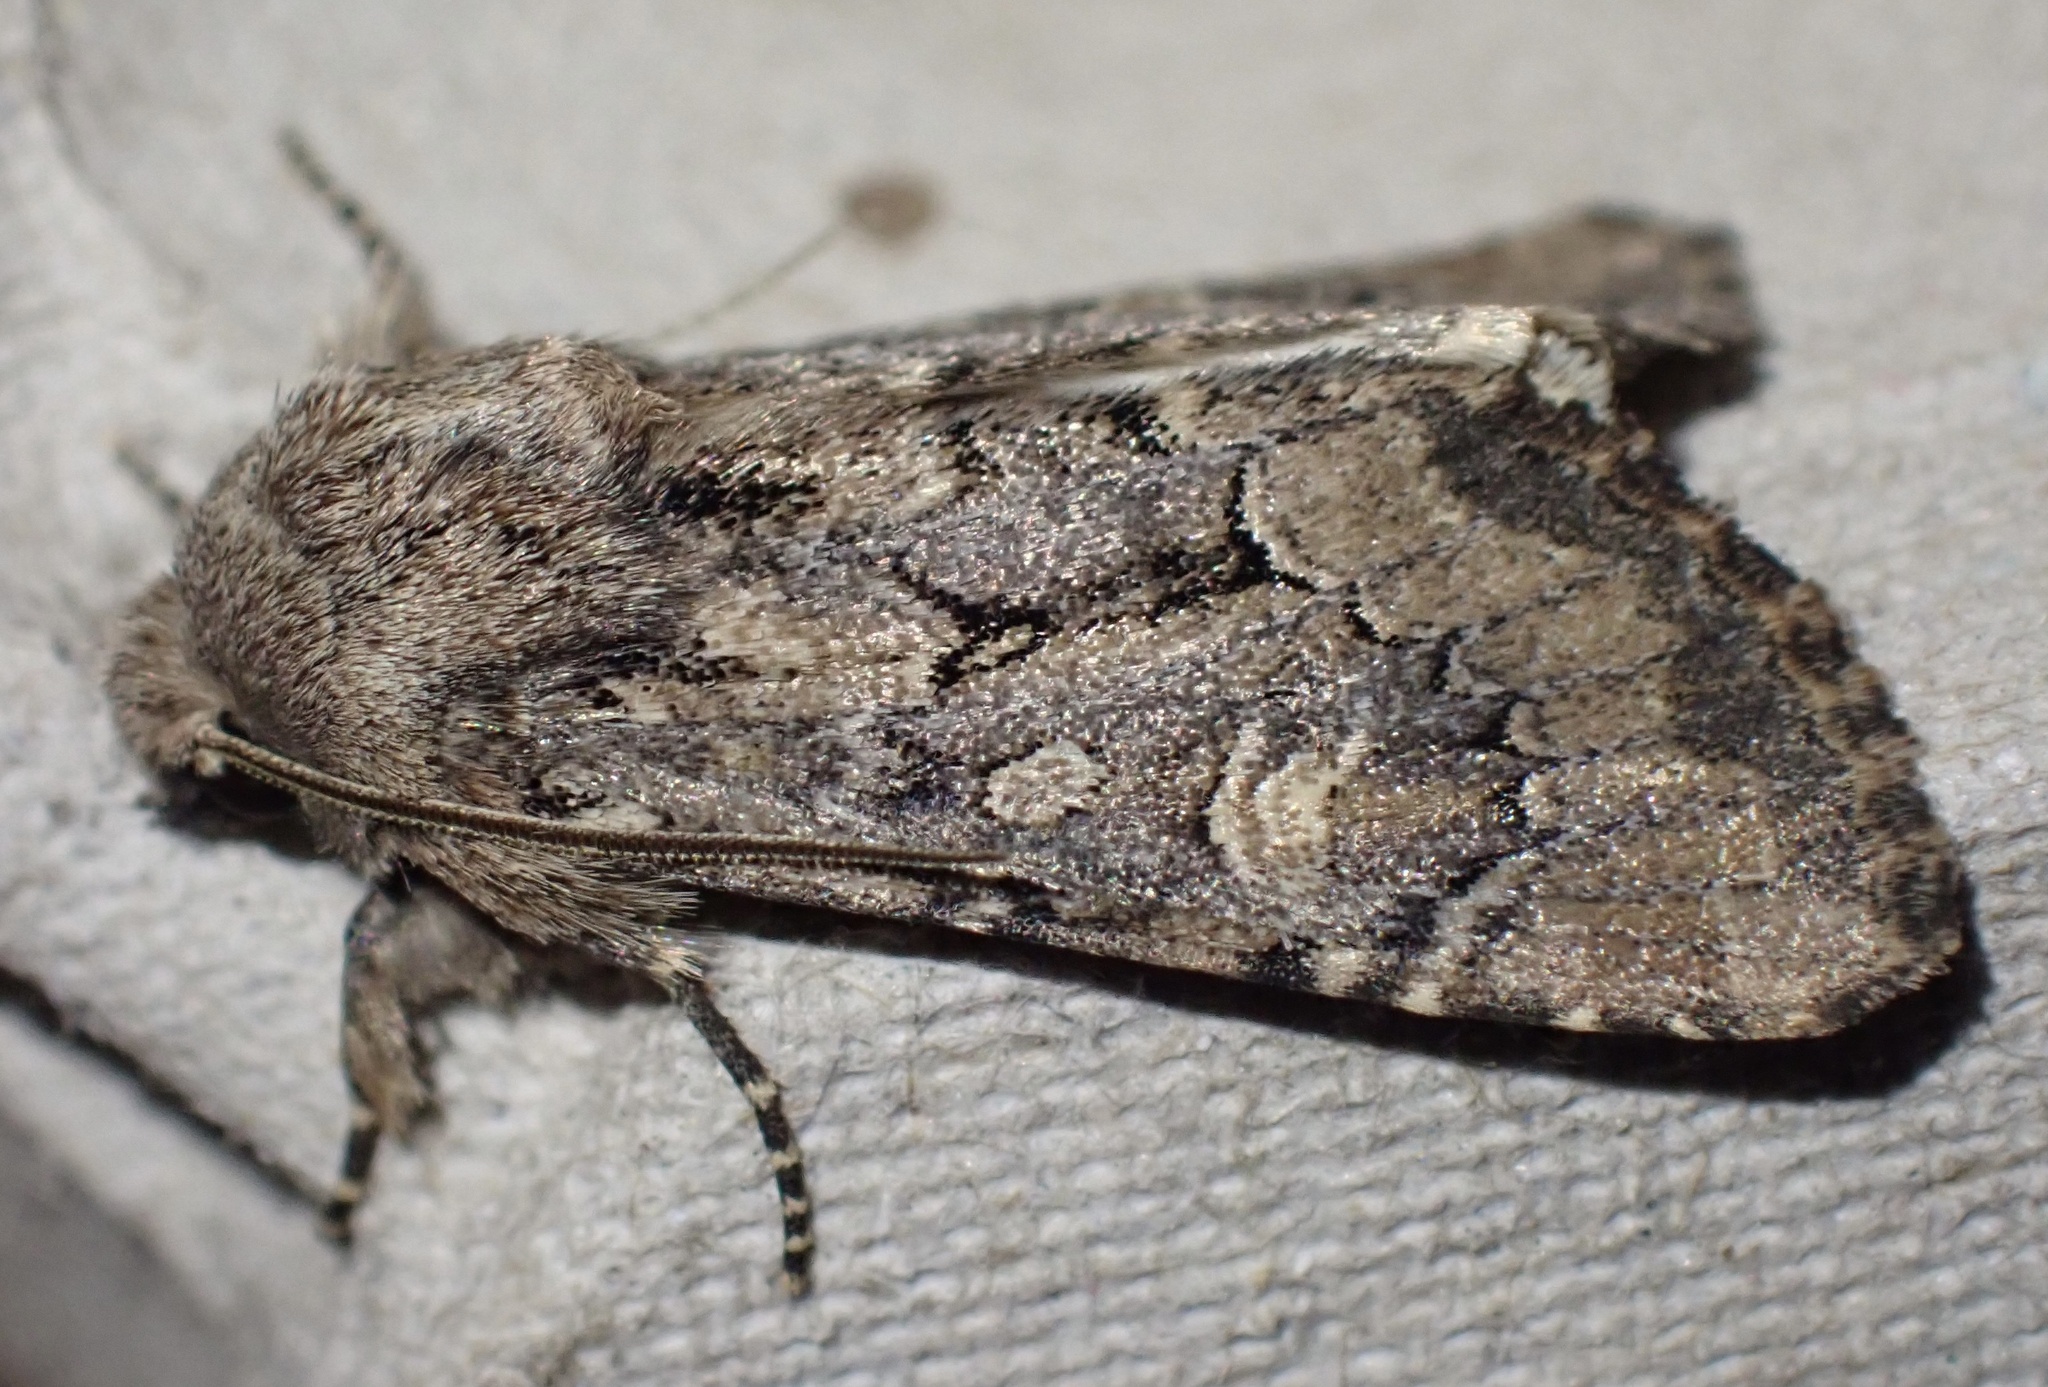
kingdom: Animalia
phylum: Arthropoda
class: Insecta
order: Lepidoptera
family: Noctuidae
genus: Luperina
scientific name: Luperina testacea
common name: Flounced rustic
